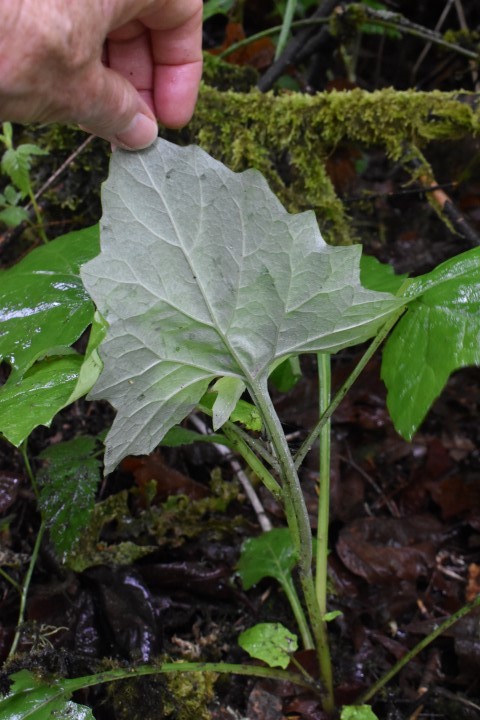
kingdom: Plantae
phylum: Tracheophyta
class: Magnoliopsida
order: Asterales
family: Asteraceae
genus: Adenocaulon
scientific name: Adenocaulon bicolor
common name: Trailplant
